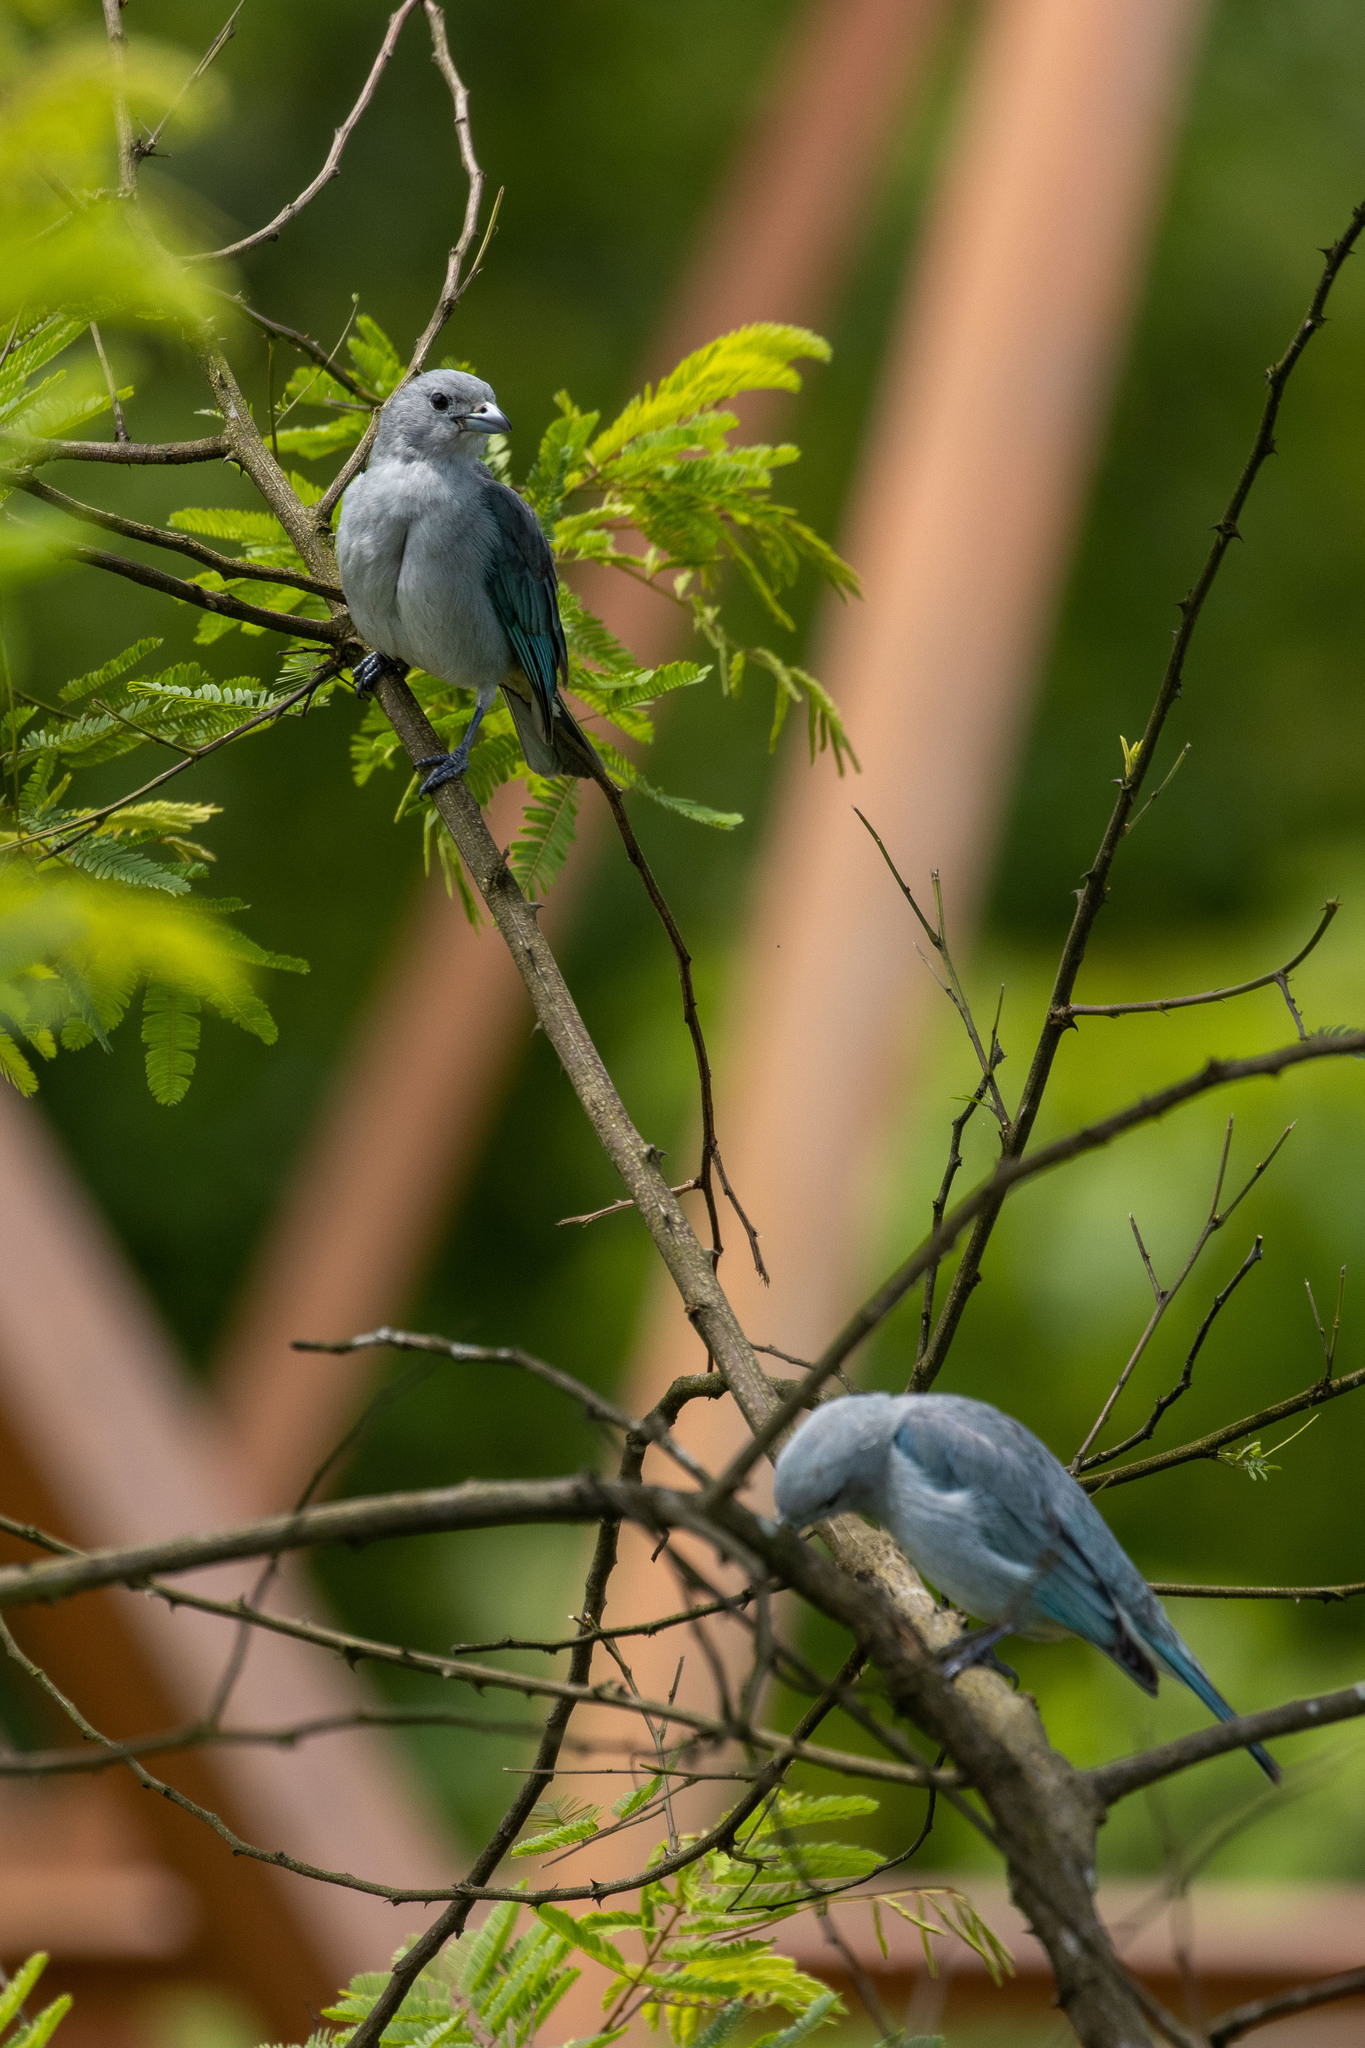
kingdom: Animalia
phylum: Chordata
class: Aves
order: Passeriformes
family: Thraupidae
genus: Thraupis
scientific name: Thraupis sayaca
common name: Sayaca tanager
